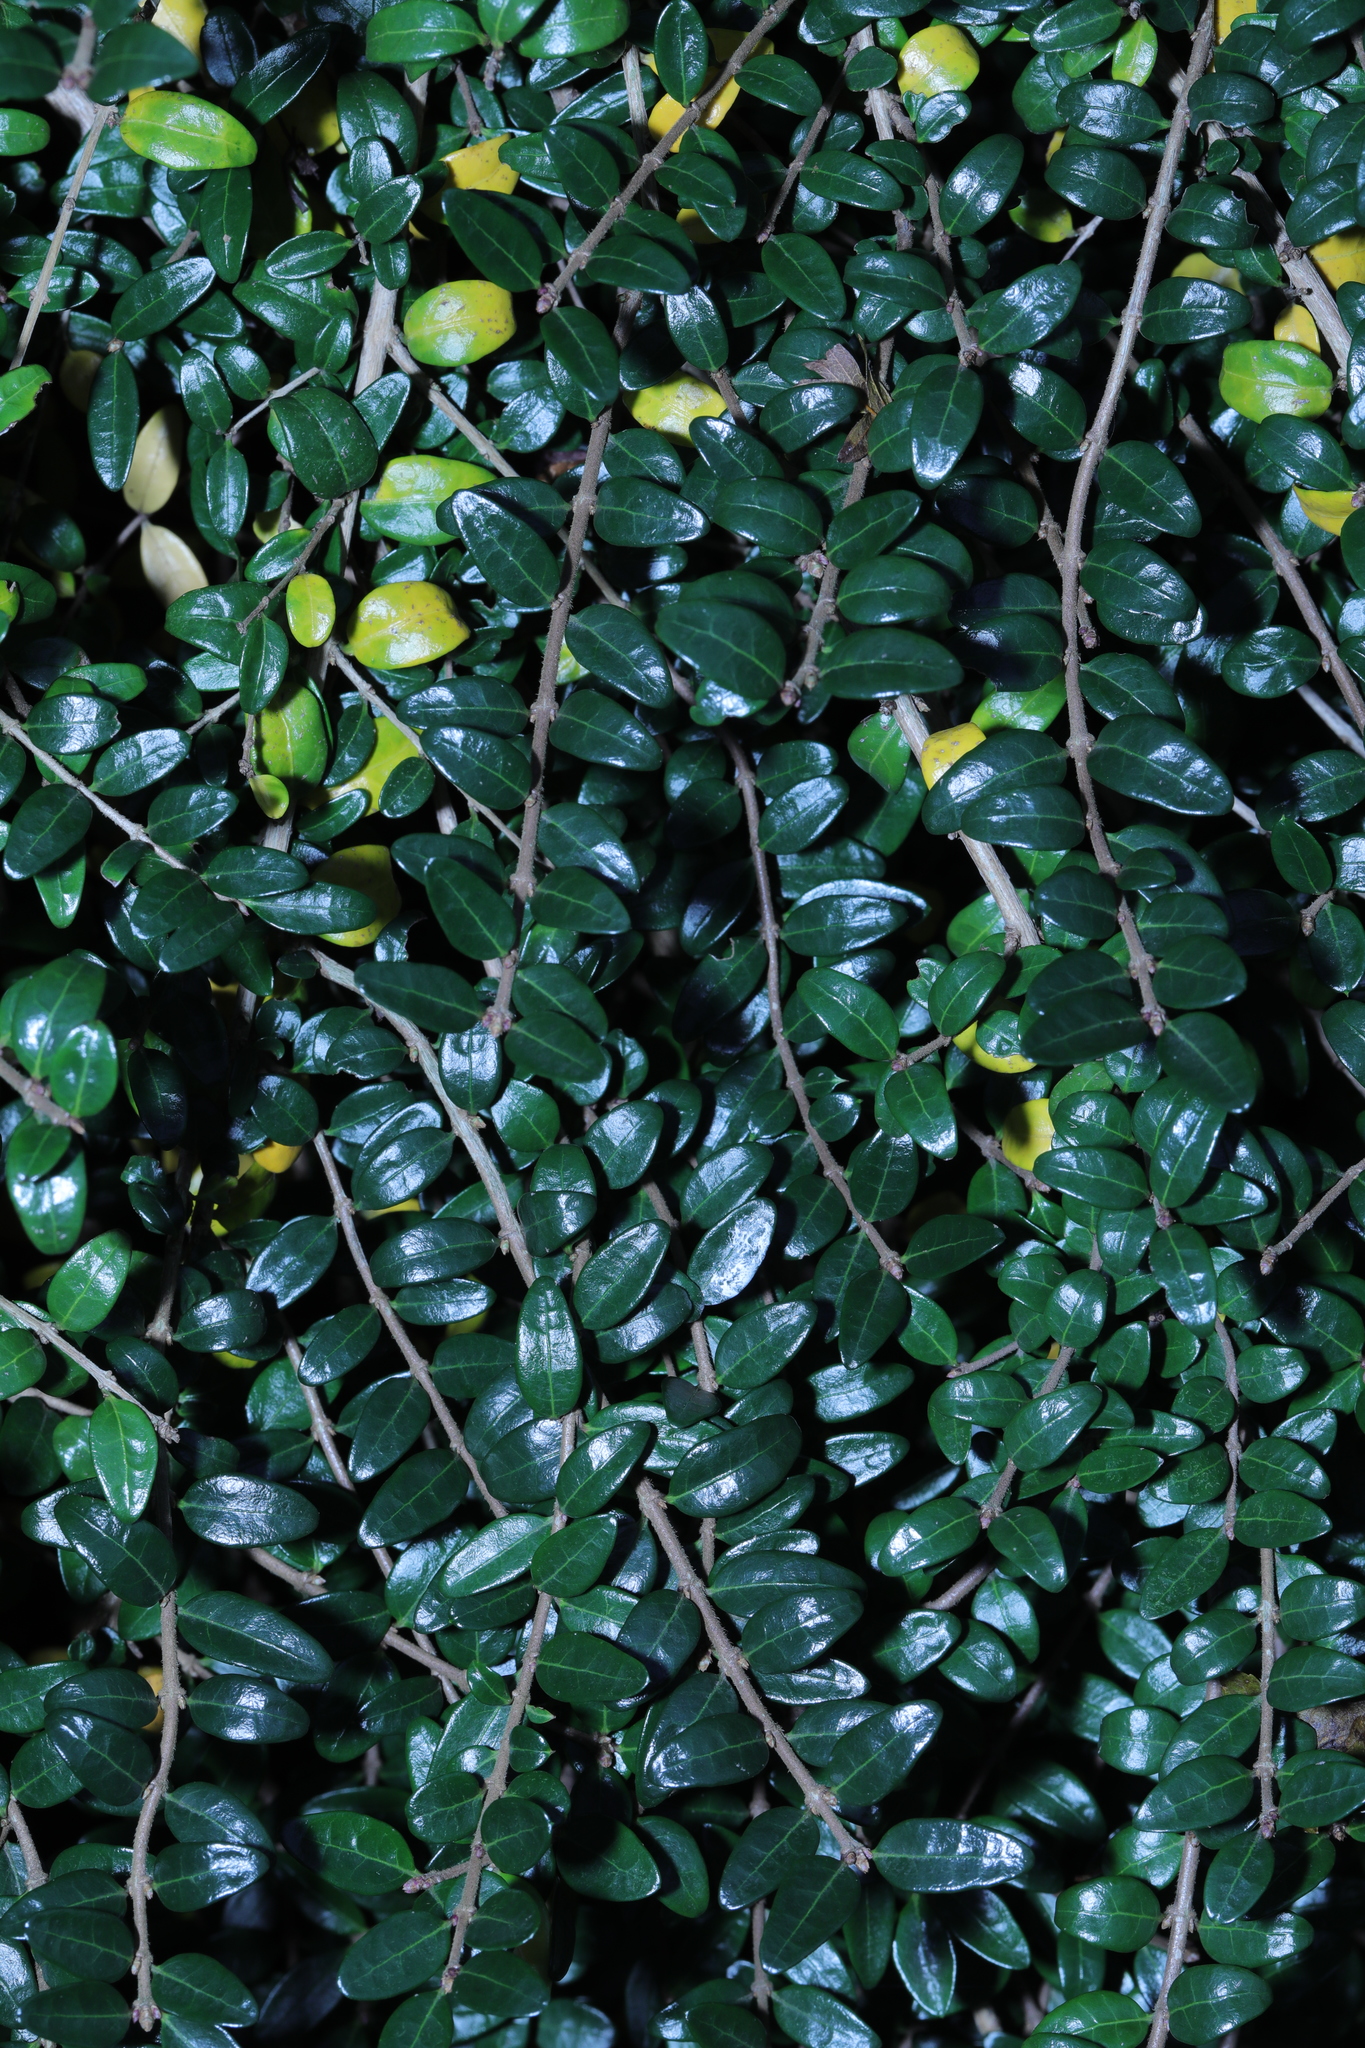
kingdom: Plantae
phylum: Tracheophyta
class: Magnoliopsida
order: Dipsacales
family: Caprifoliaceae
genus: Lonicera
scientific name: Lonicera pileata
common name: Box-leaved honeysuckle
